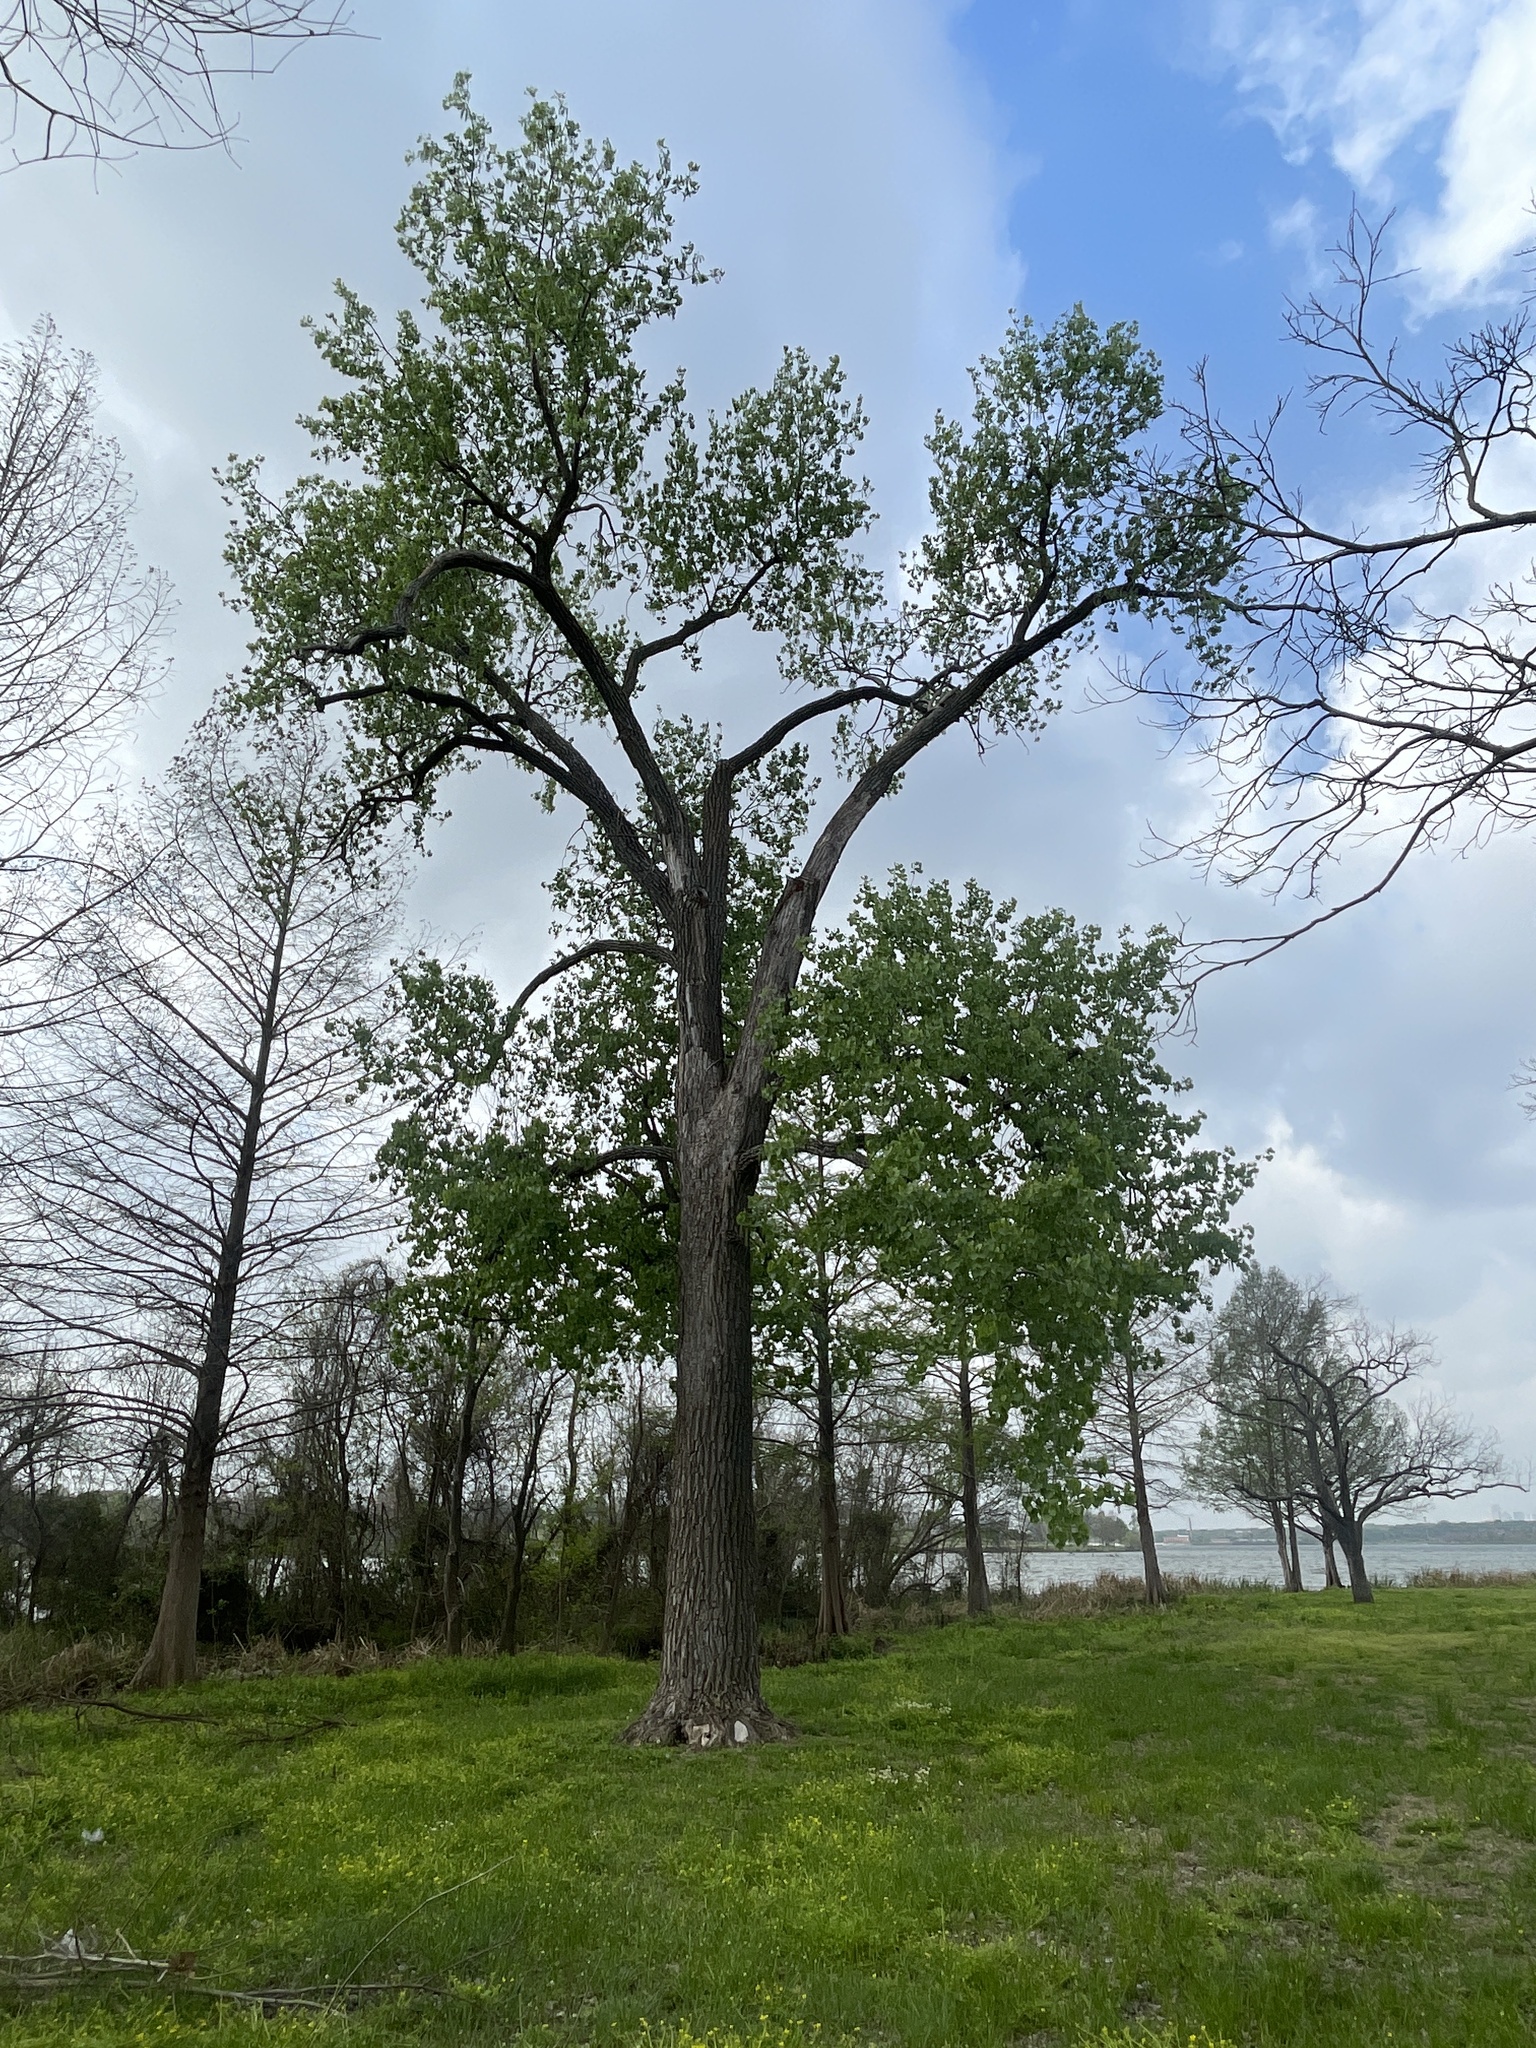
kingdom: Plantae
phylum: Tracheophyta
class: Magnoliopsida
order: Malpighiales
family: Salicaceae
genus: Populus
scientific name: Populus deltoides
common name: Eastern cottonwood
